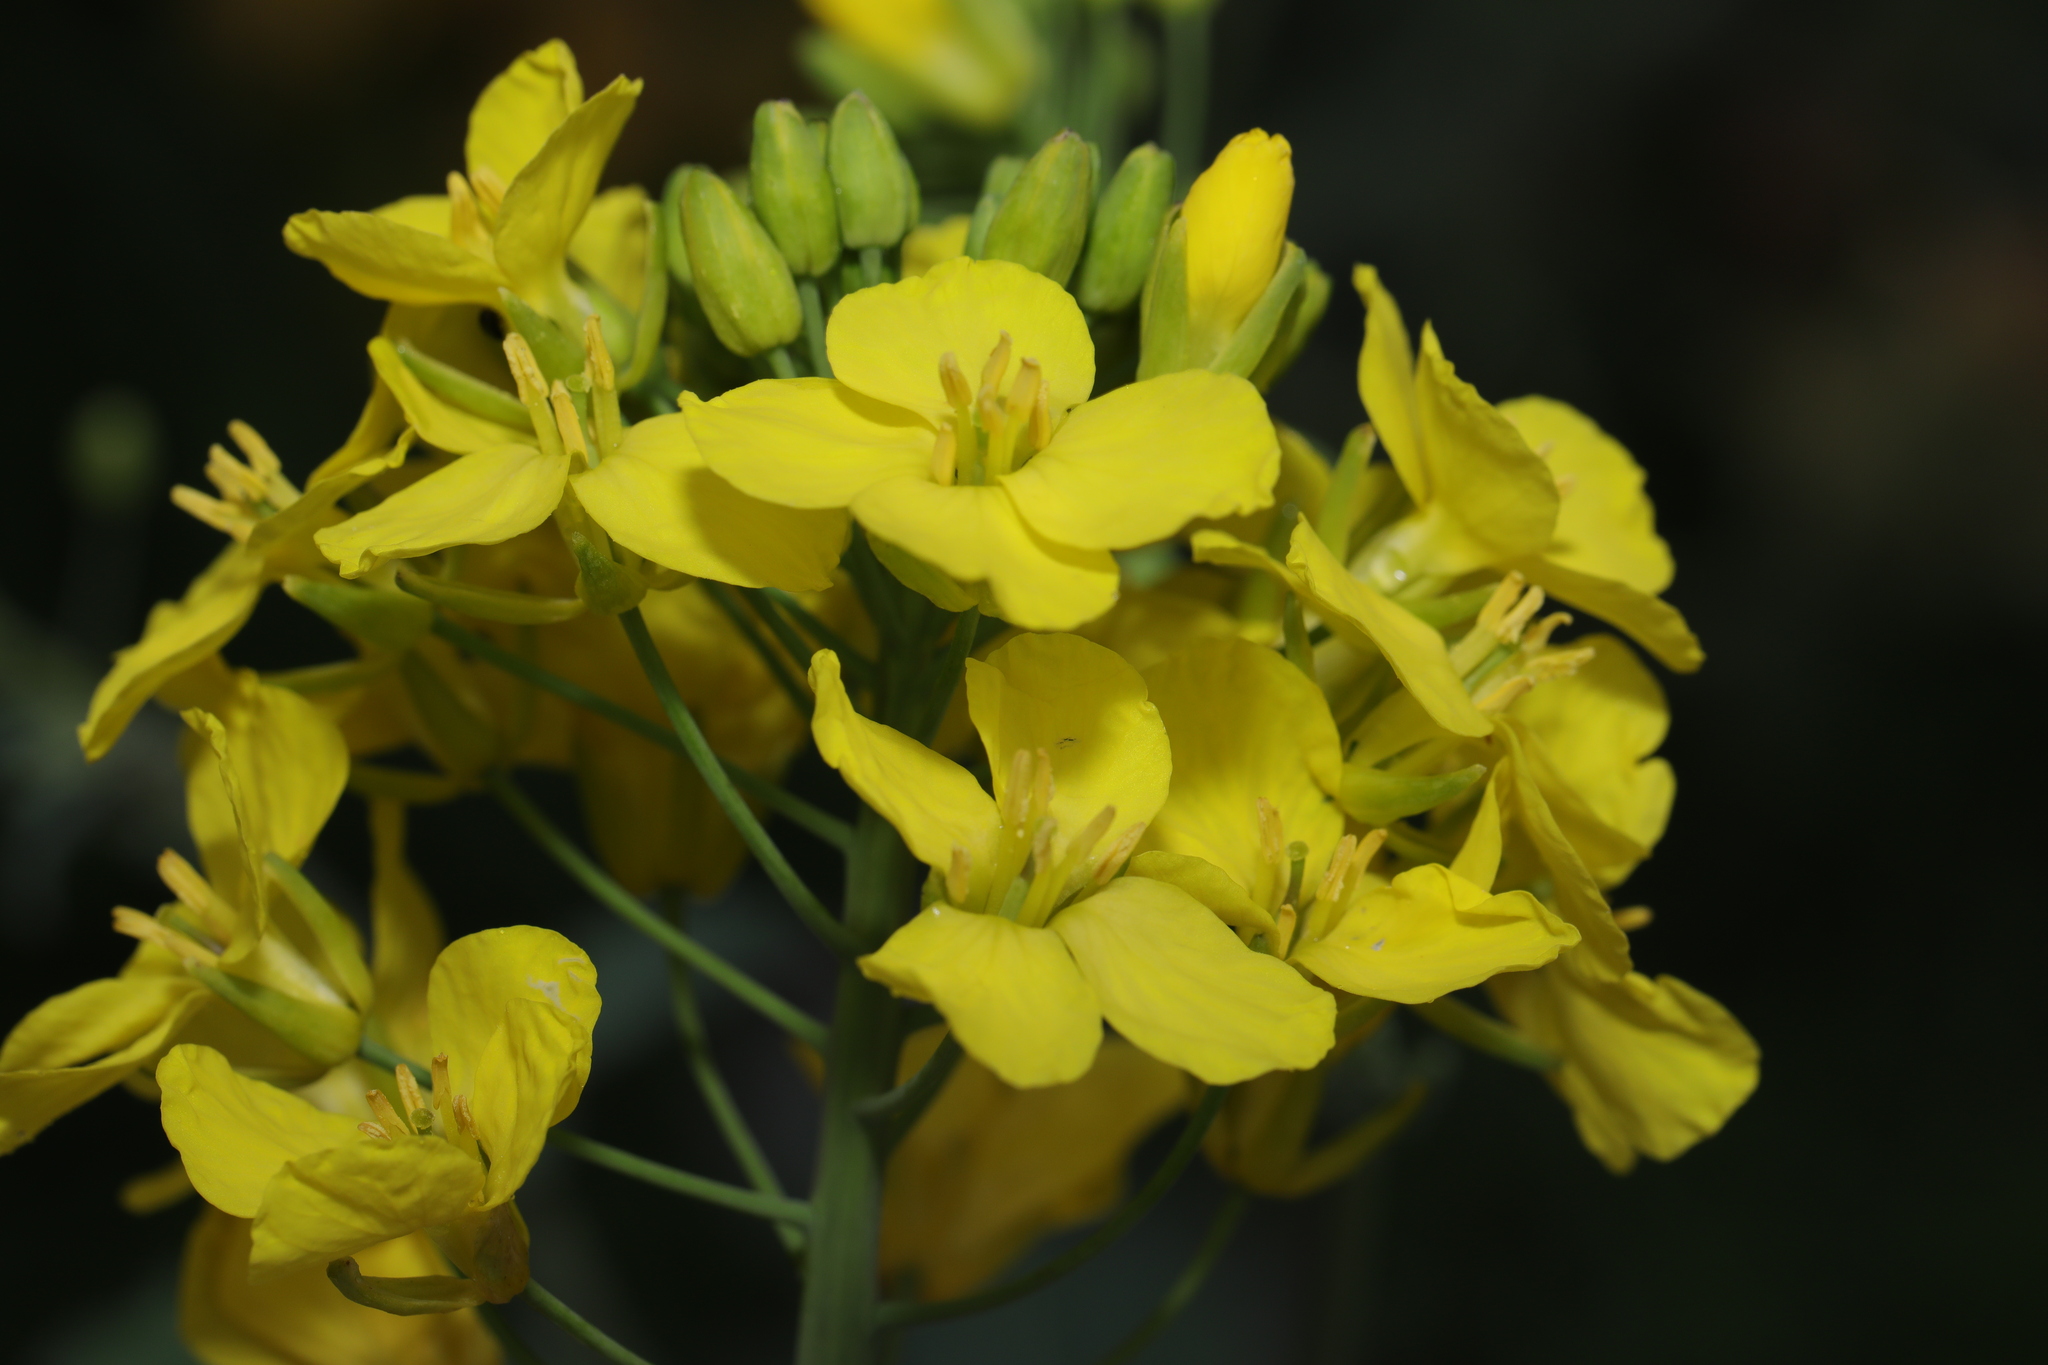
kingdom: Plantae
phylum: Tracheophyta
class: Magnoliopsida
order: Brassicales
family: Brassicaceae
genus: Brassica
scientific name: Brassica napus
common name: Rape
